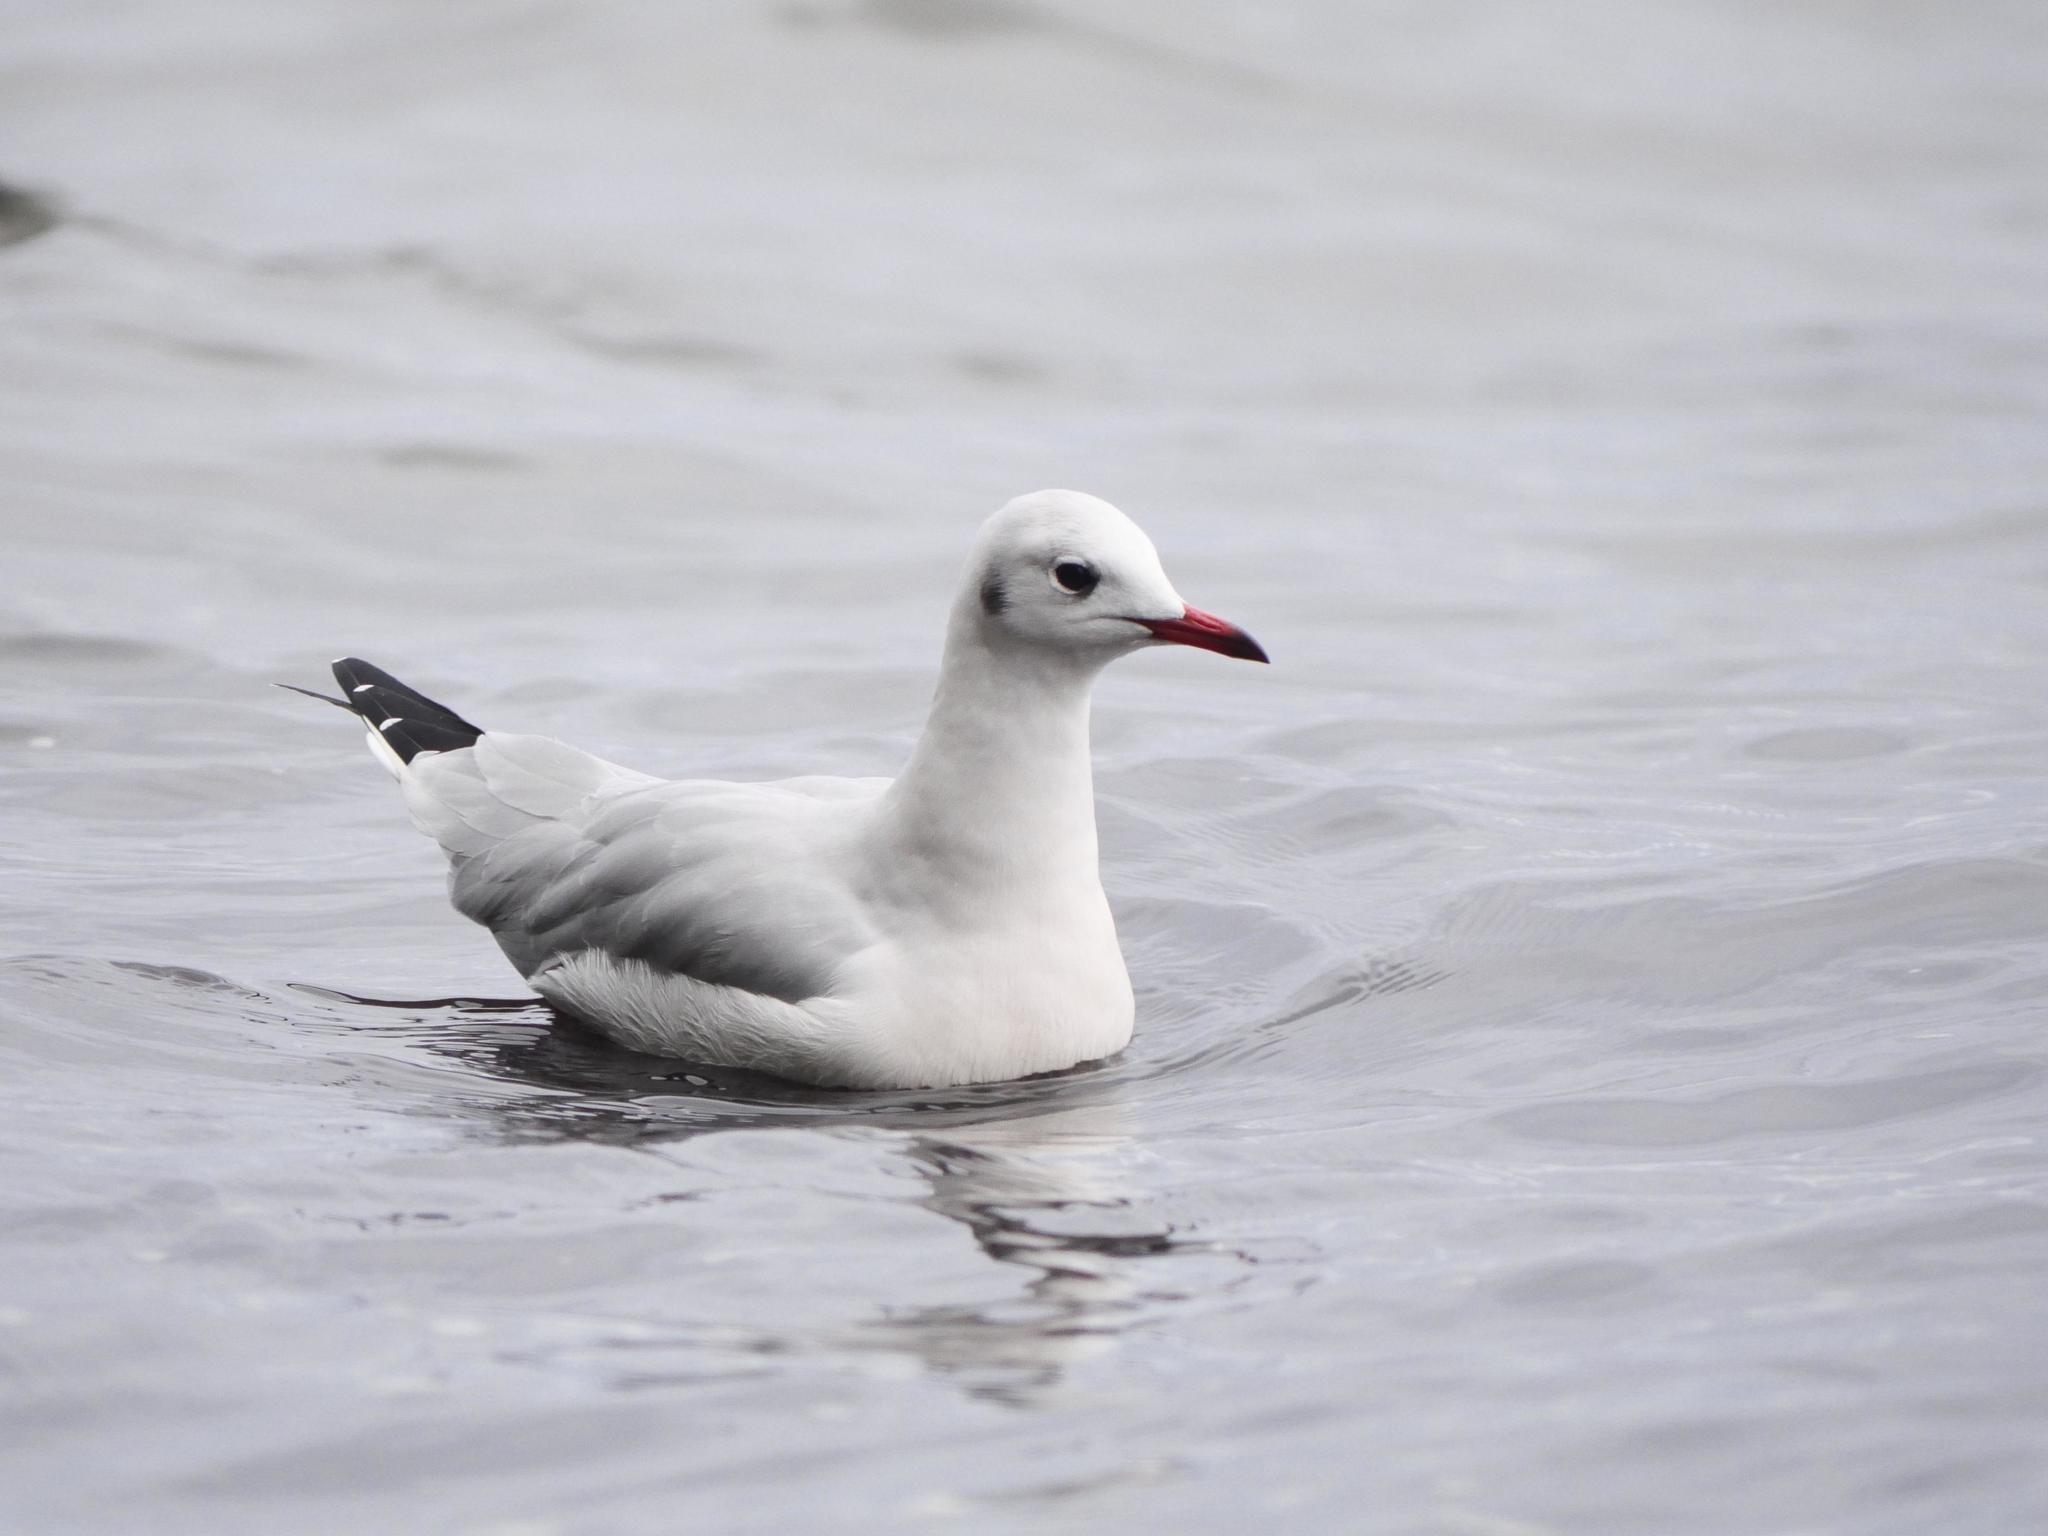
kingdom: Animalia
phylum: Chordata
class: Aves
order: Charadriiformes
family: Laridae
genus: Chroicocephalus
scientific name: Chroicocephalus ridibundus
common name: Black-headed gull
